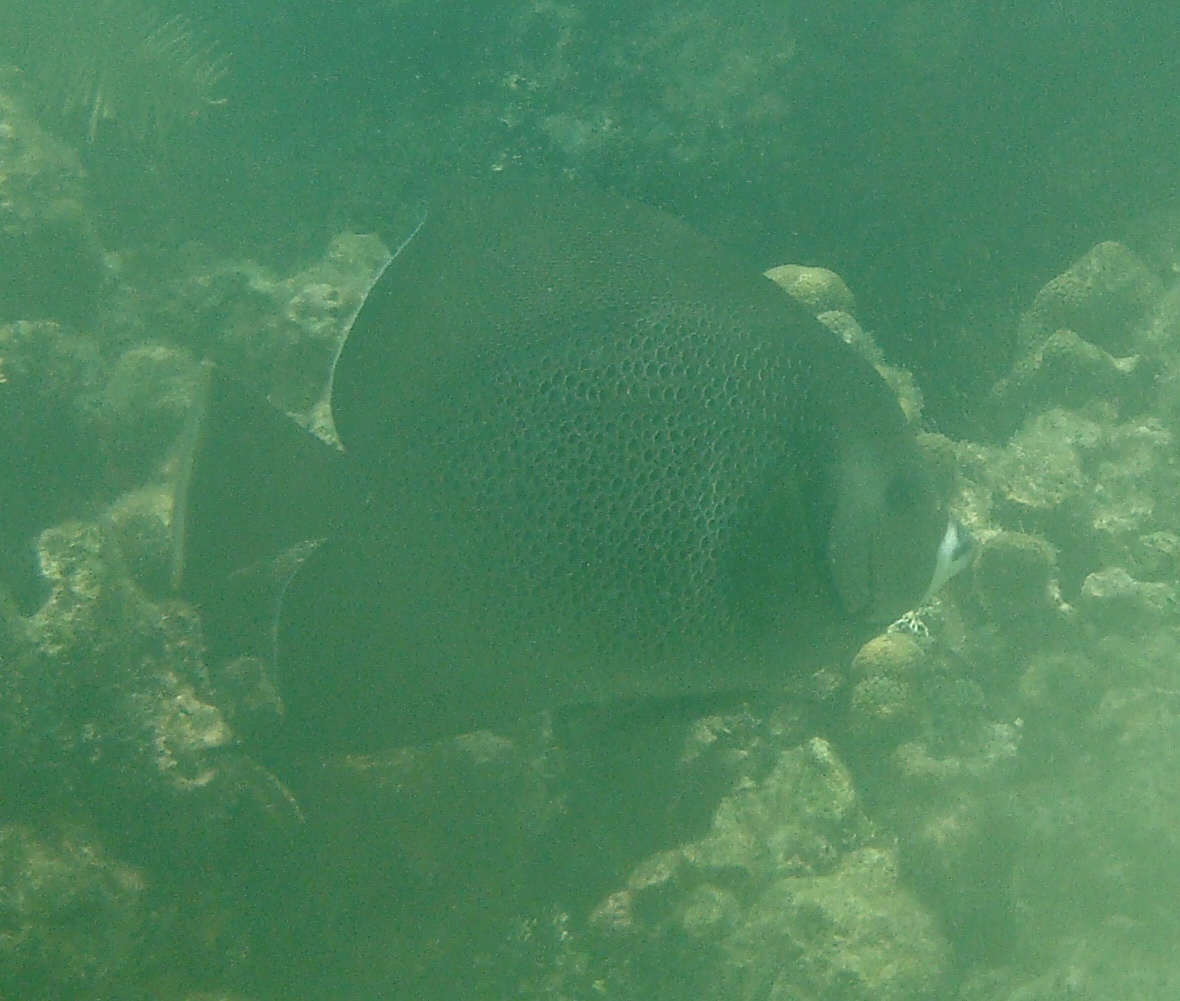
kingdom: Animalia
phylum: Chordata
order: Perciformes
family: Pomacanthidae
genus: Pomacanthus
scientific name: Pomacanthus arcuatus
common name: Gray angelfish
